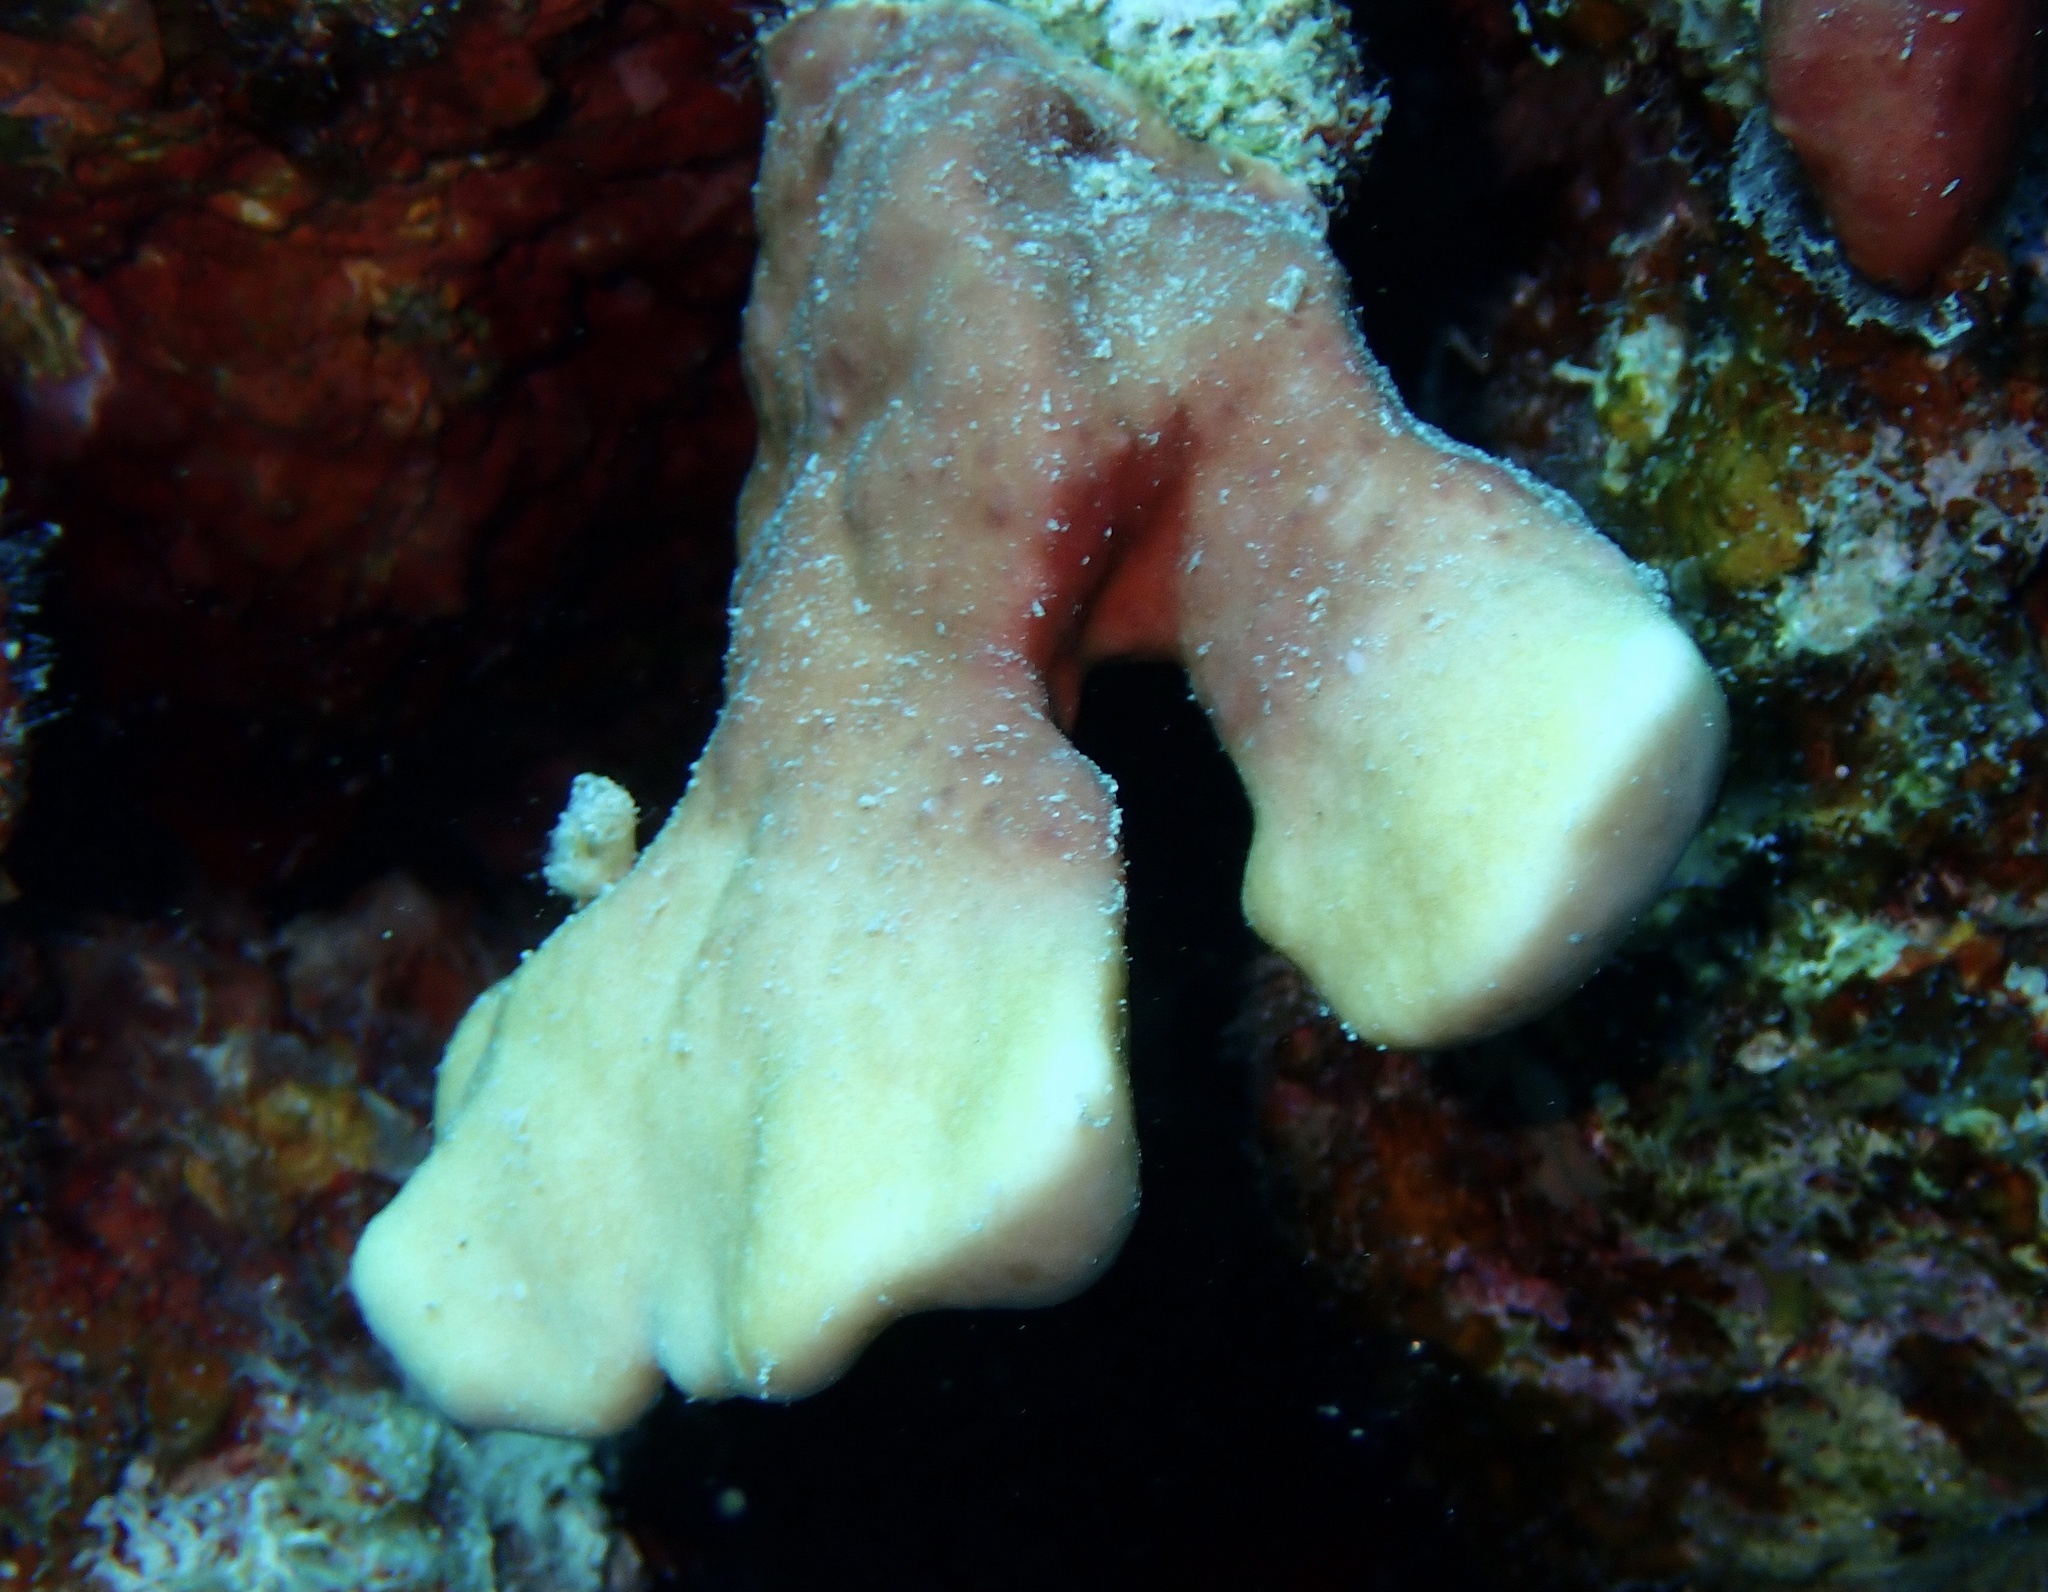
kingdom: Animalia
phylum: Cnidaria
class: Hydrozoa
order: Anthoathecata
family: Milleporidae
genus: Millepora
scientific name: Millepora exaesa
